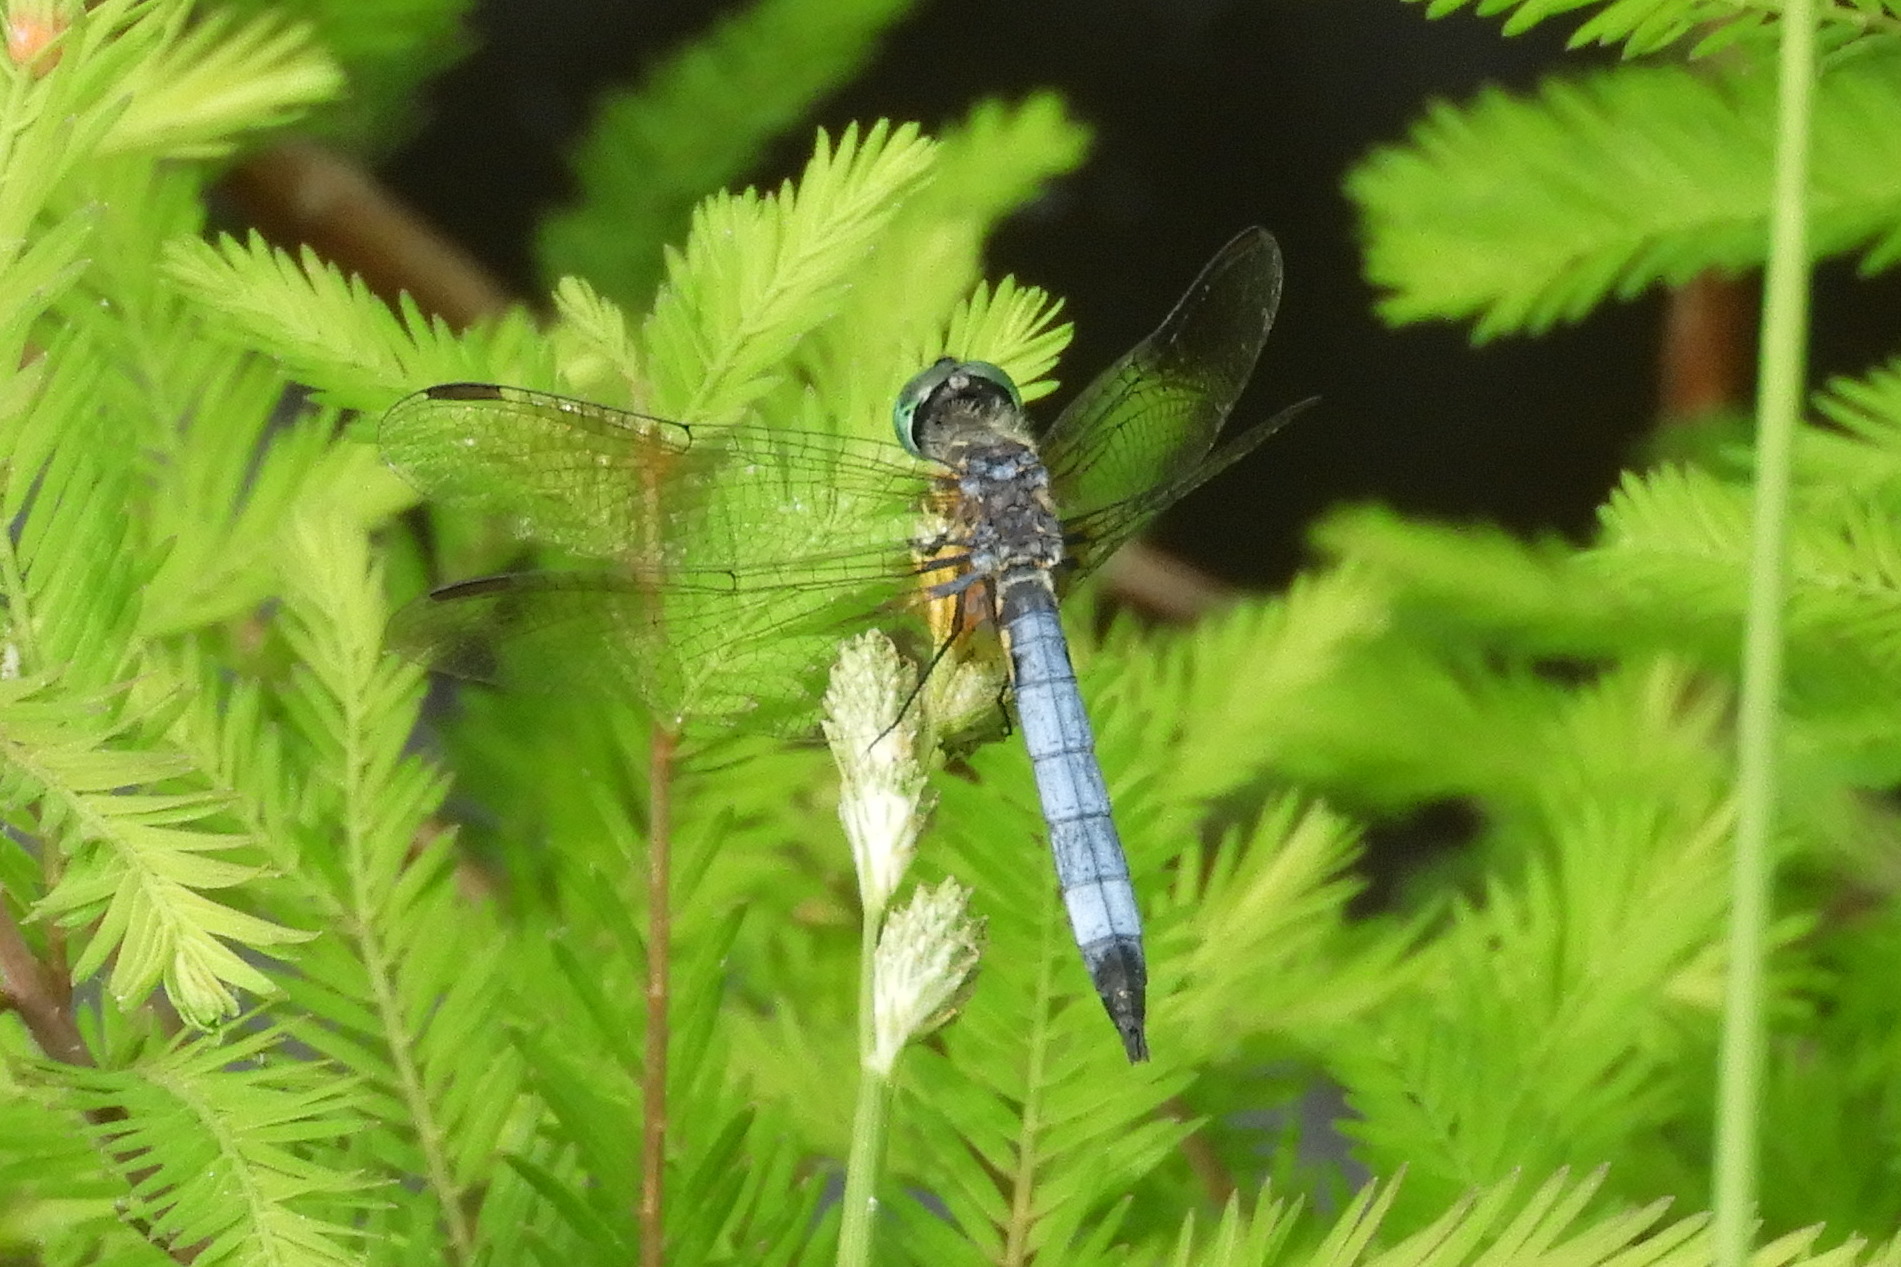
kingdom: Animalia
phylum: Arthropoda
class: Insecta
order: Odonata
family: Libellulidae
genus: Pachydiplax
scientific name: Pachydiplax longipennis
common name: Blue dasher
